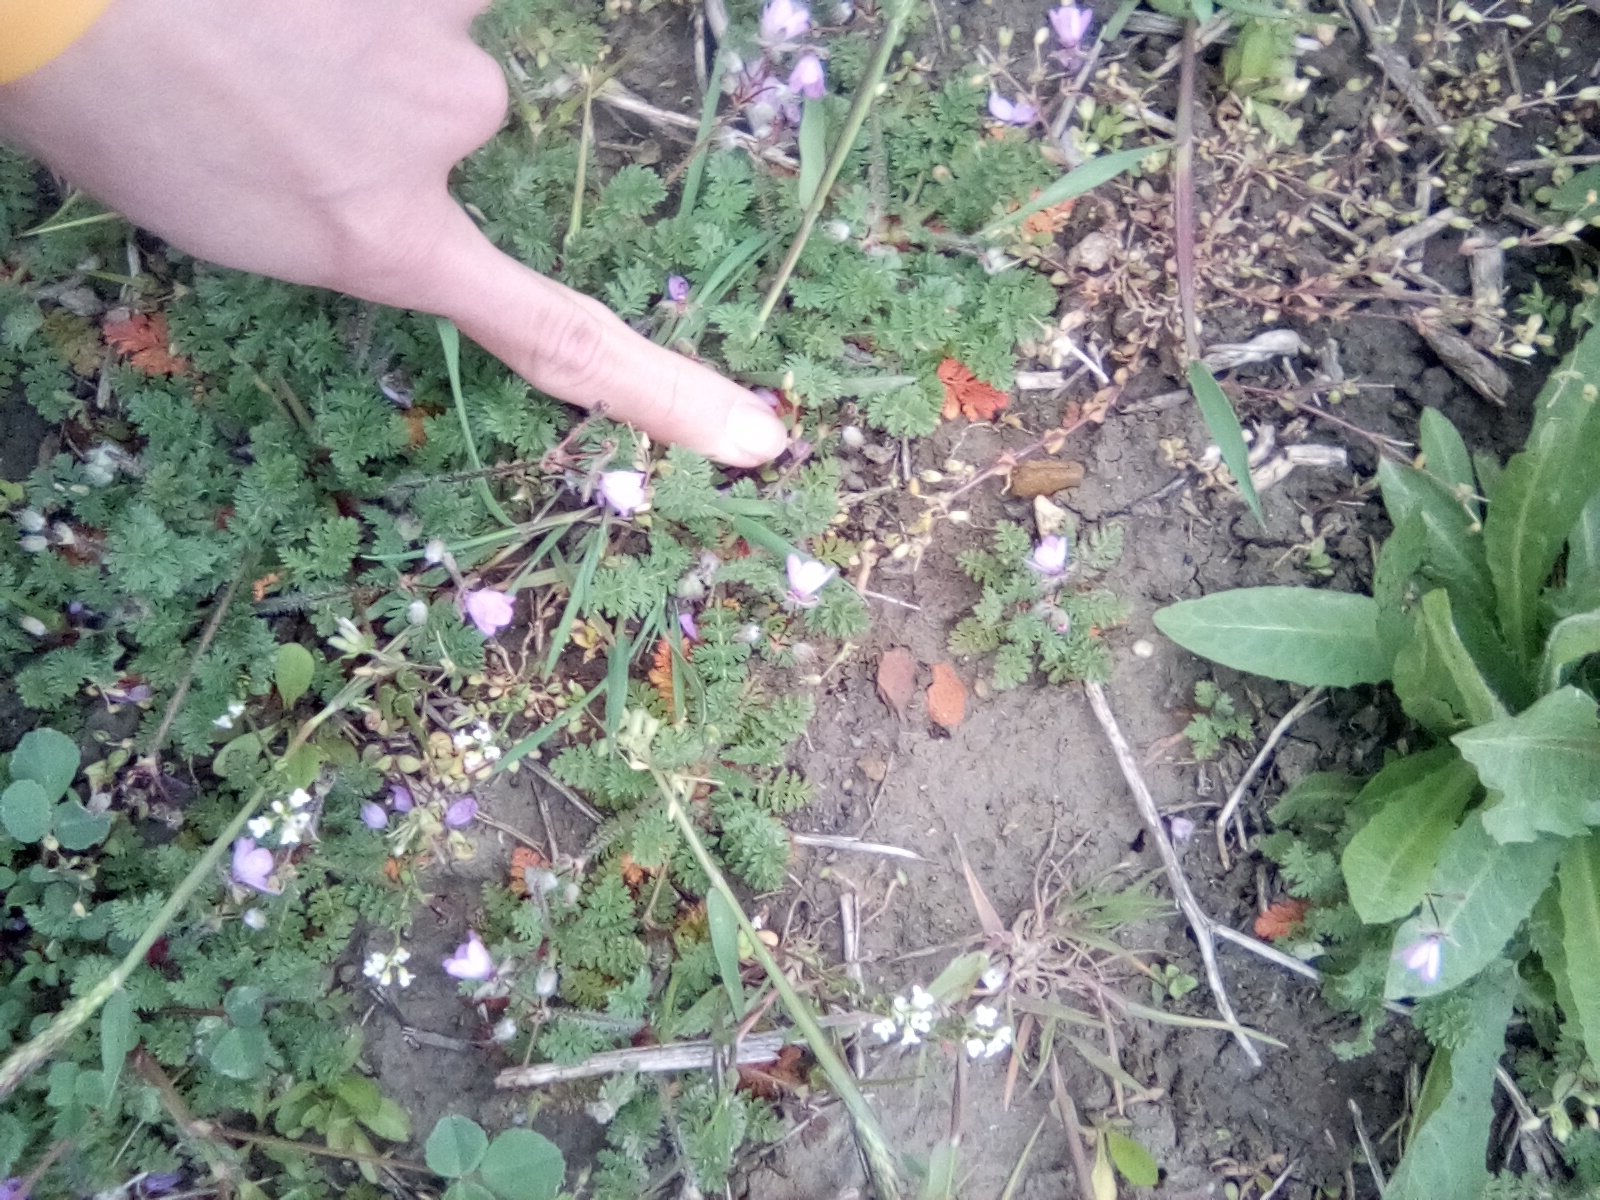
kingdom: Plantae
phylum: Tracheophyta
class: Magnoliopsida
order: Geraniales
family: Geraniaceae
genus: Erodium
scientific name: Erodium cicutarium
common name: Common stork's-bill
